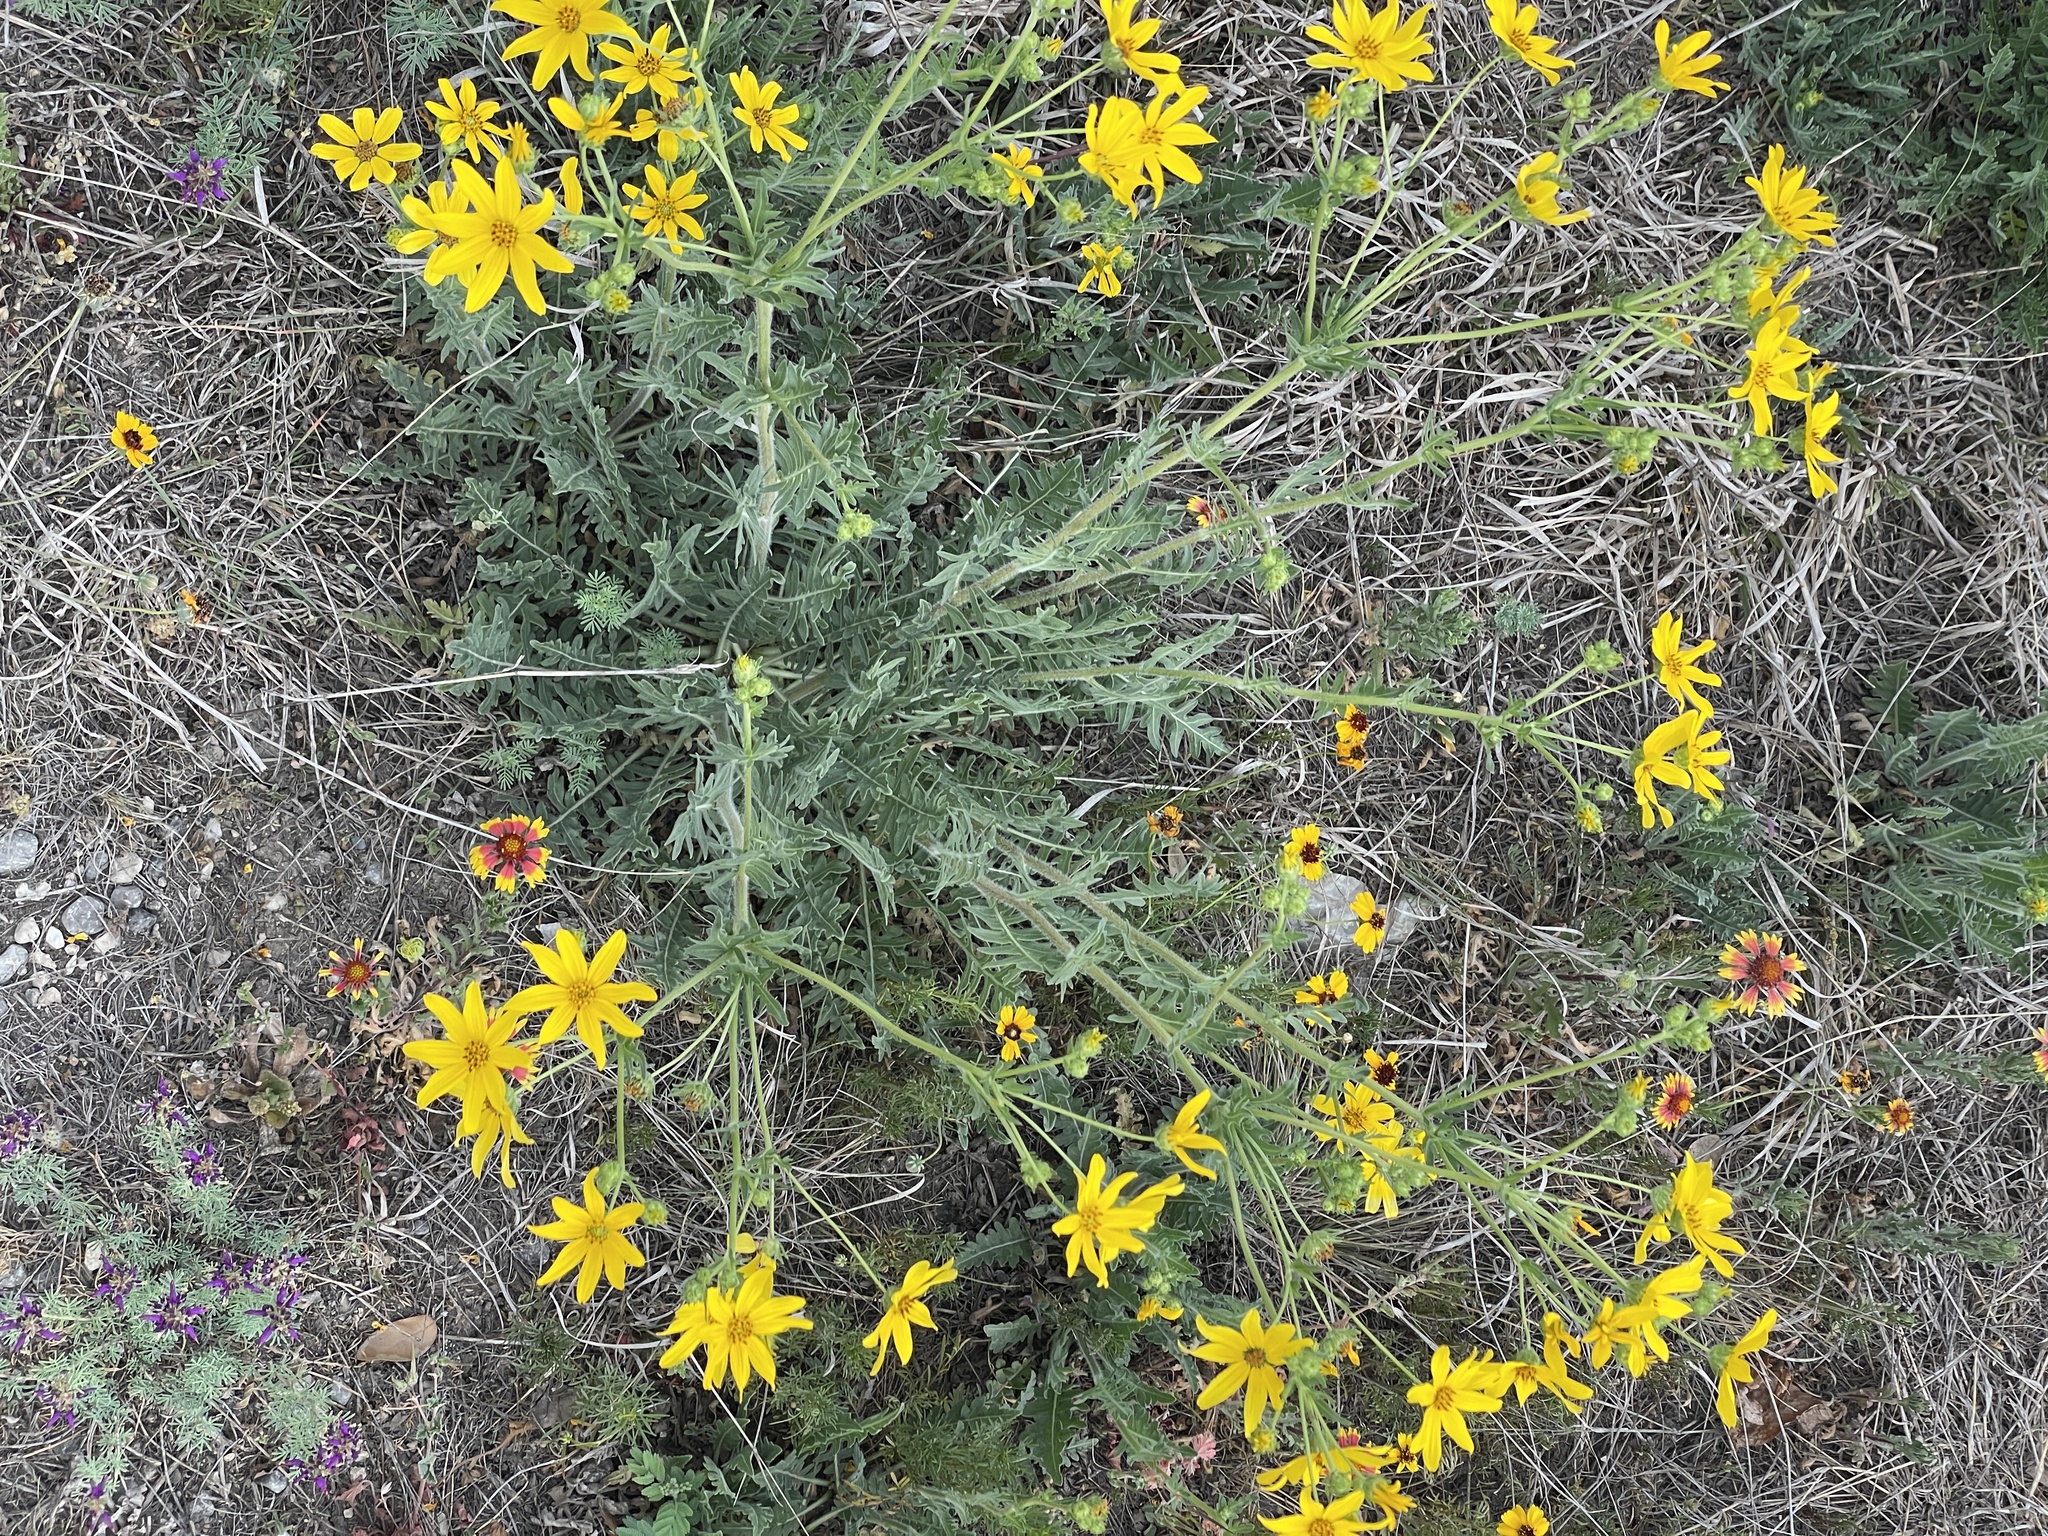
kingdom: Plantae
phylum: Tracheophyta
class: Magnoliopsida
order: Asterales
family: Asteraceae
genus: Engelmannia
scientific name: Engelmannia peristenia
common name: Engelmann's daisy
